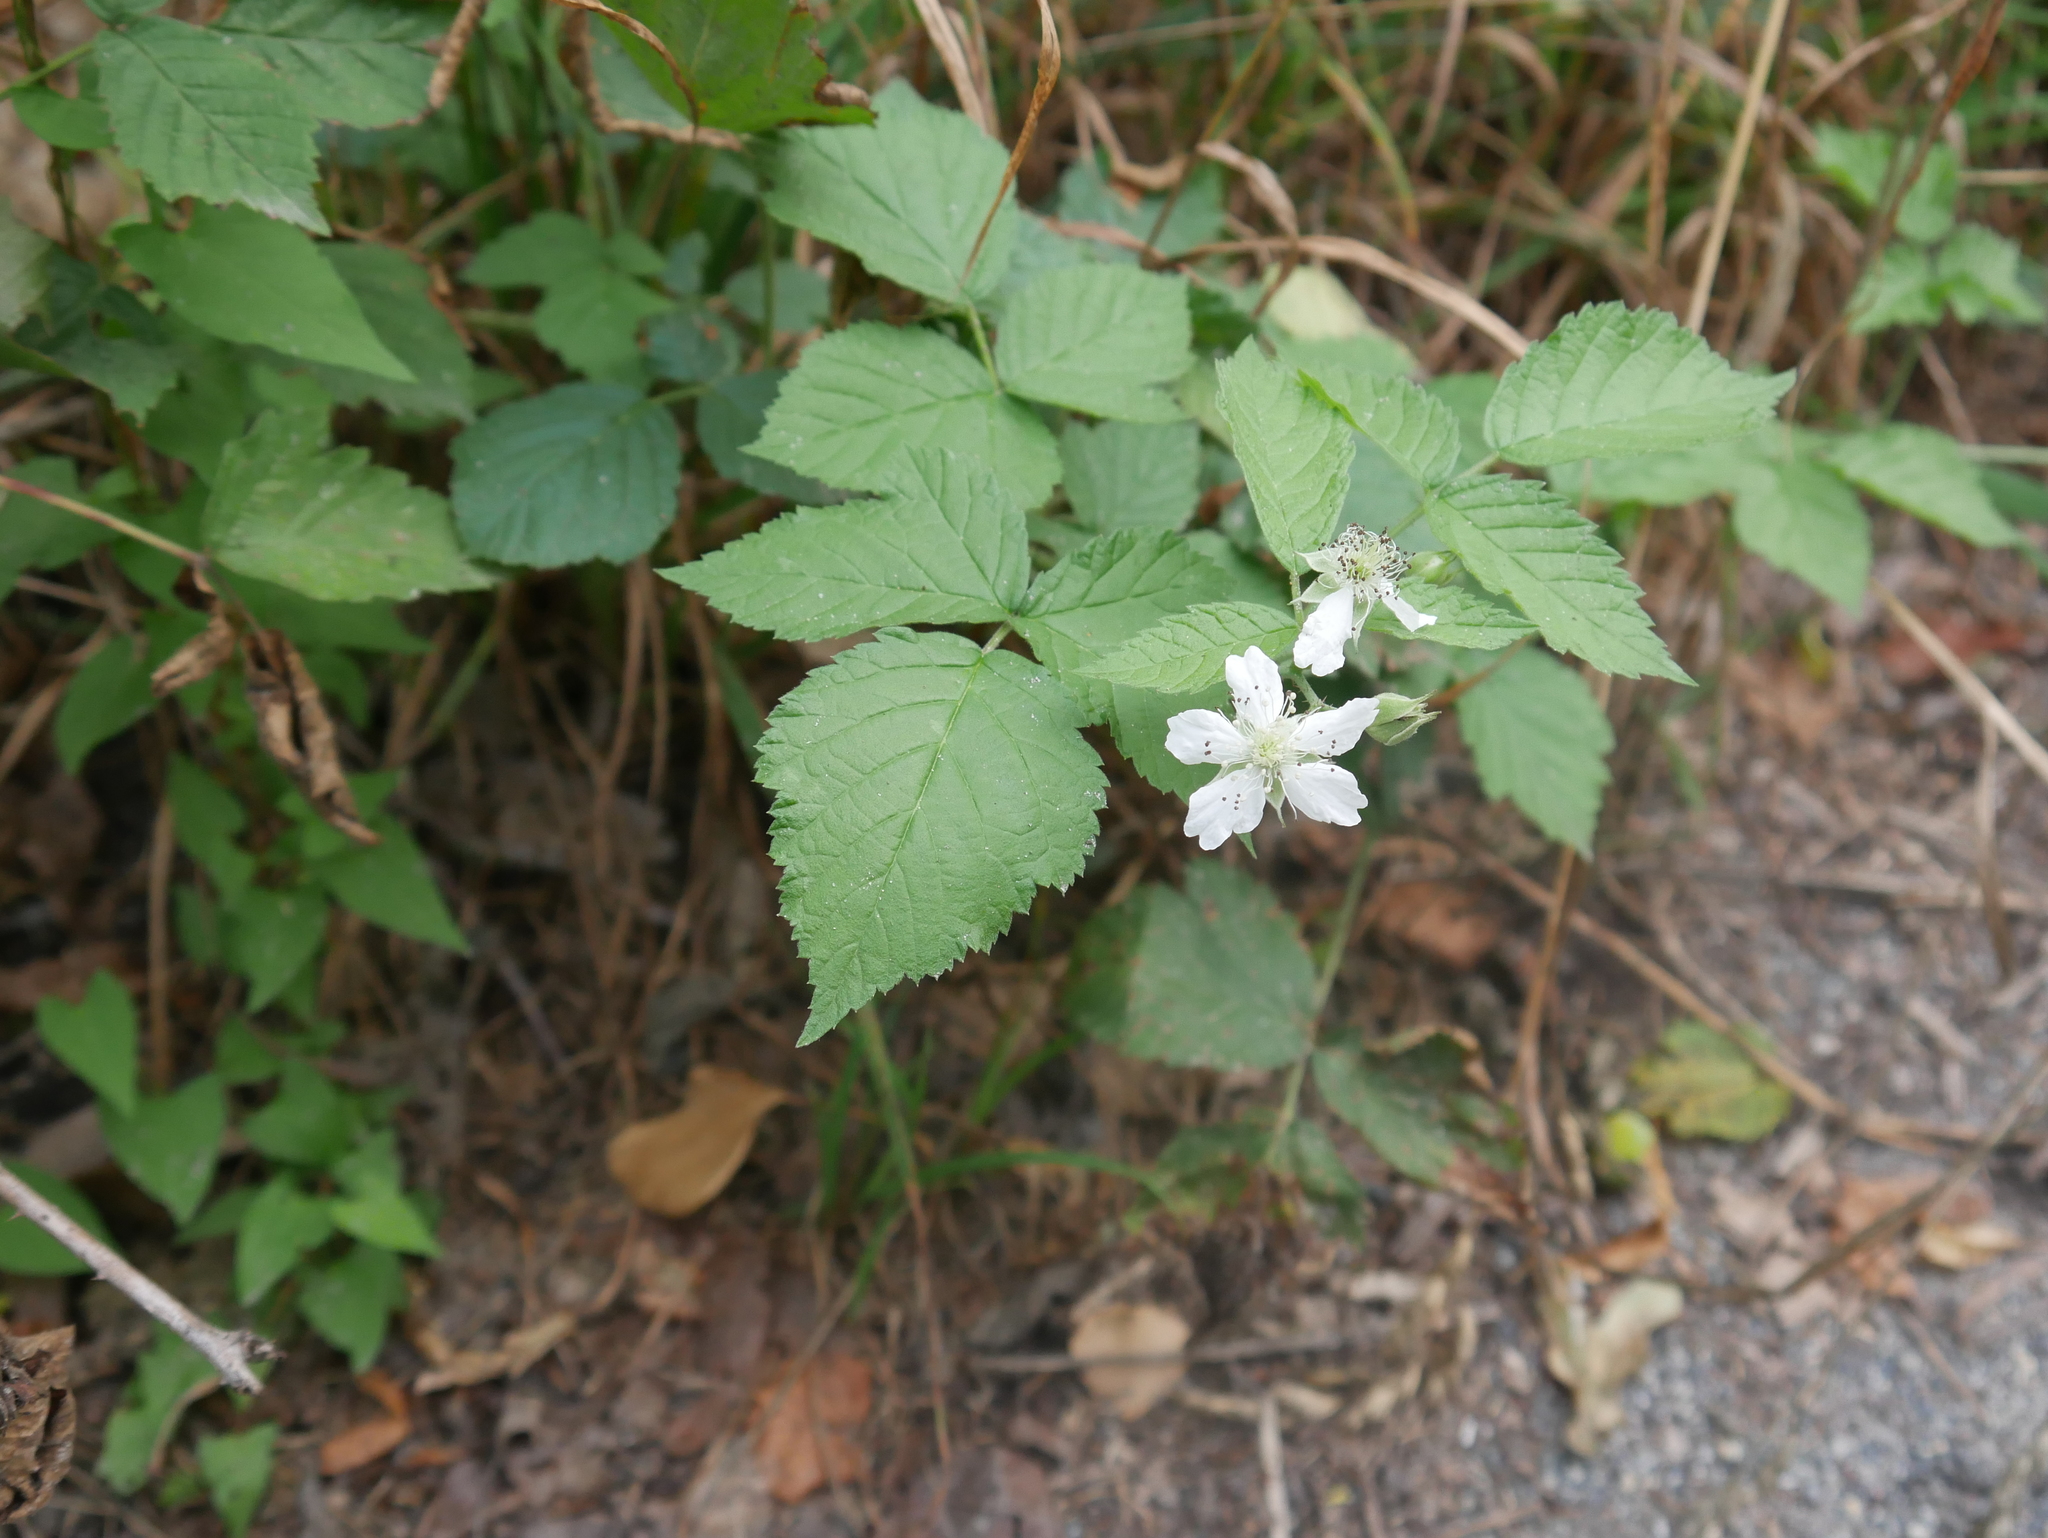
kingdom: Plantae
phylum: Tracheophyta
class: Magnoliopsida
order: Rosales
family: Rosaceae
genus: Rubus
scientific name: Rubus caesius
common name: Dewberry
